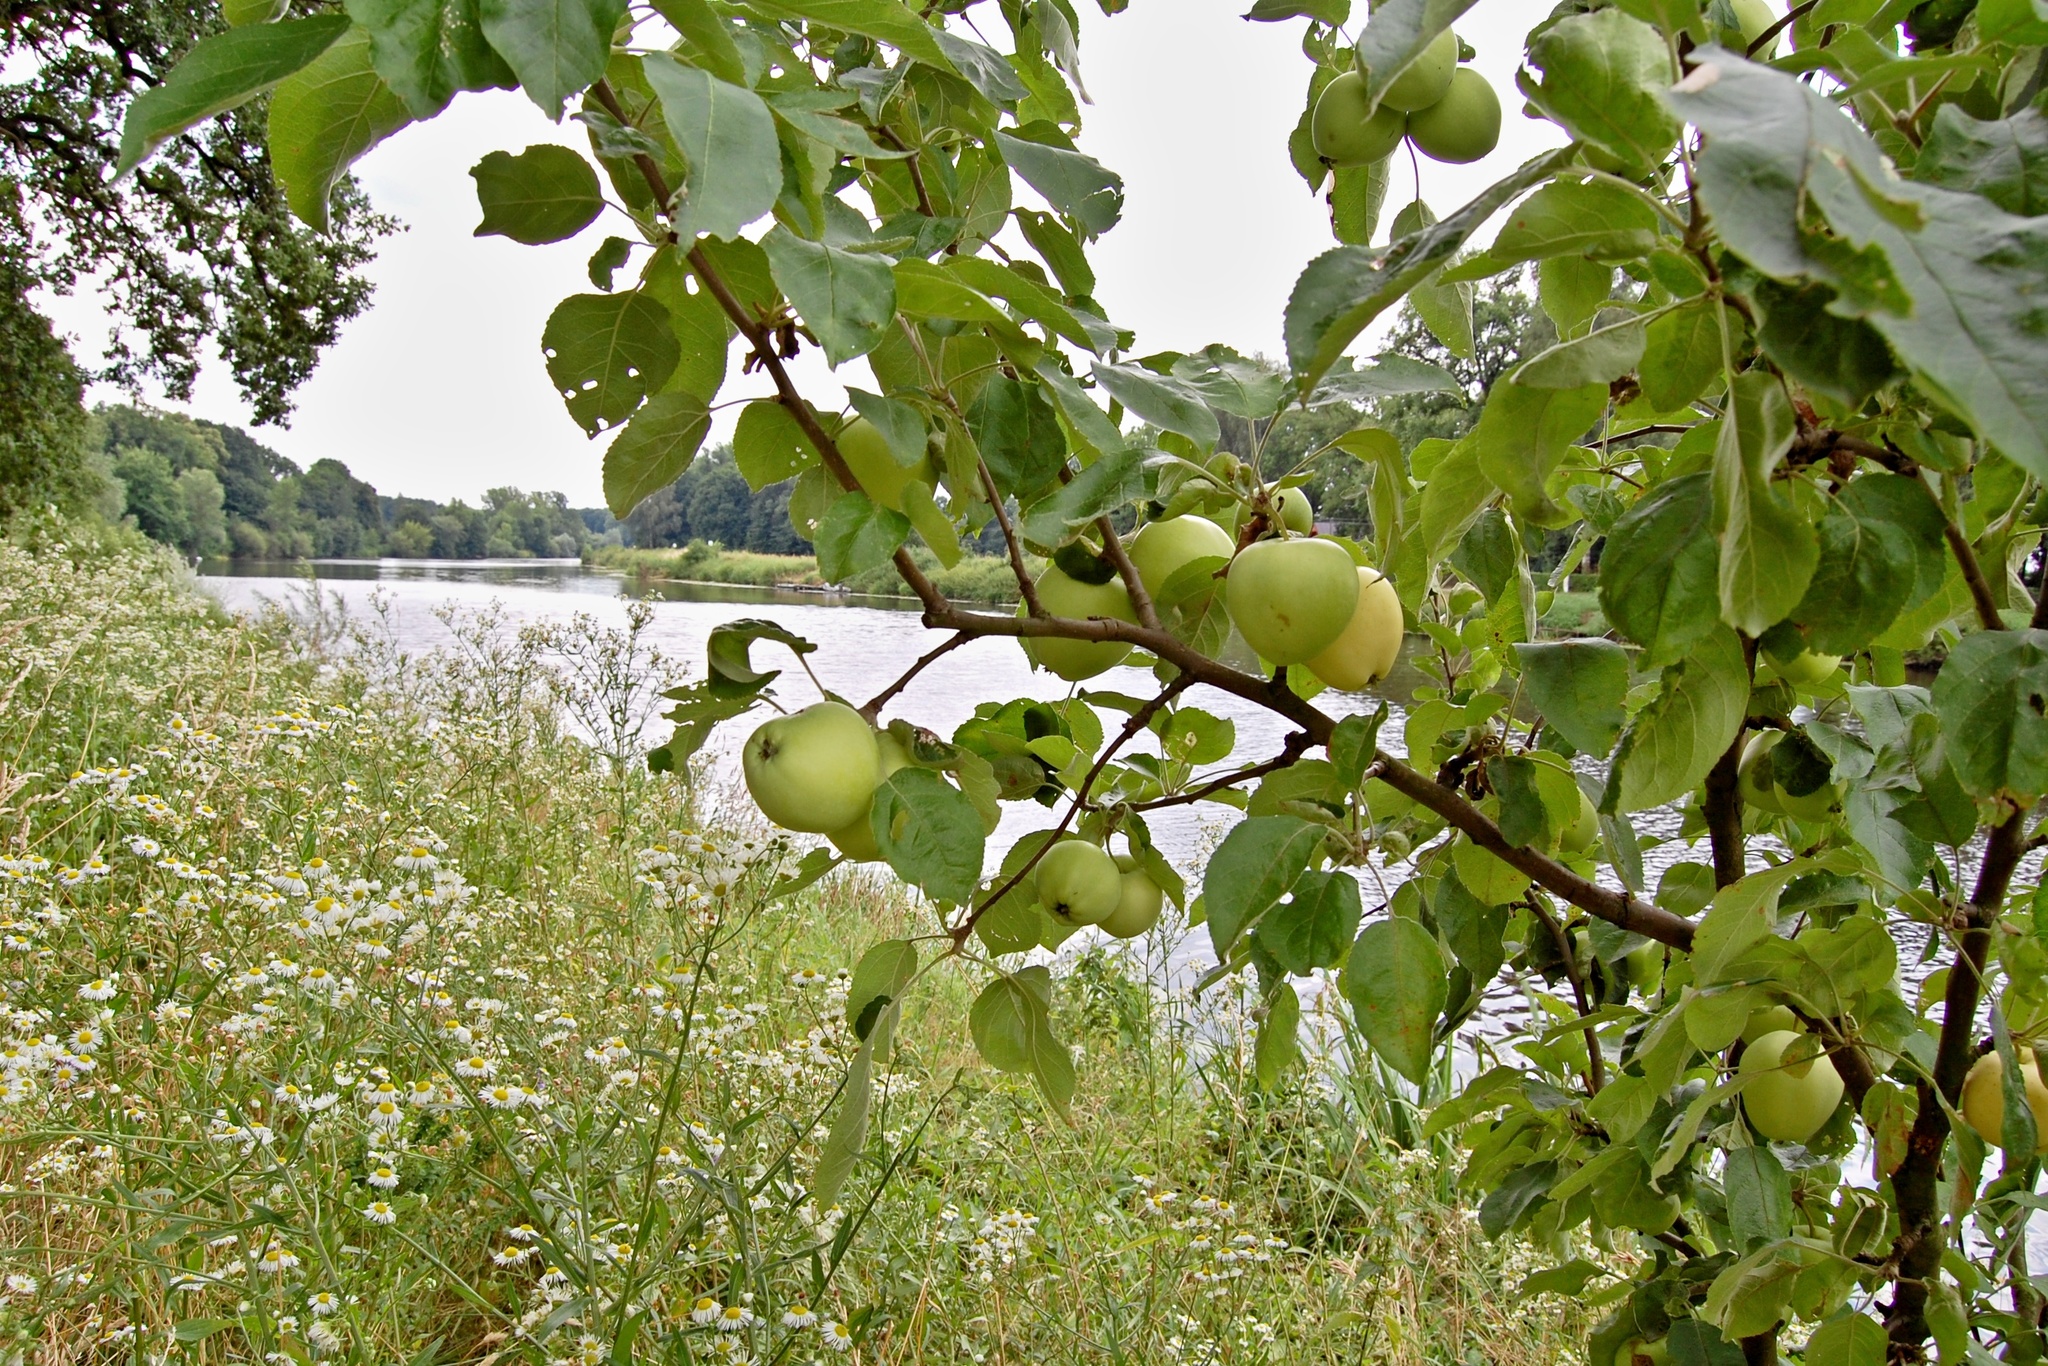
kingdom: Plantae
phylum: Tracheophyta
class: Magnoliopsida
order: Rosales
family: Rosaceae
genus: Malus
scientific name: Malus domestica
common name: Apple
